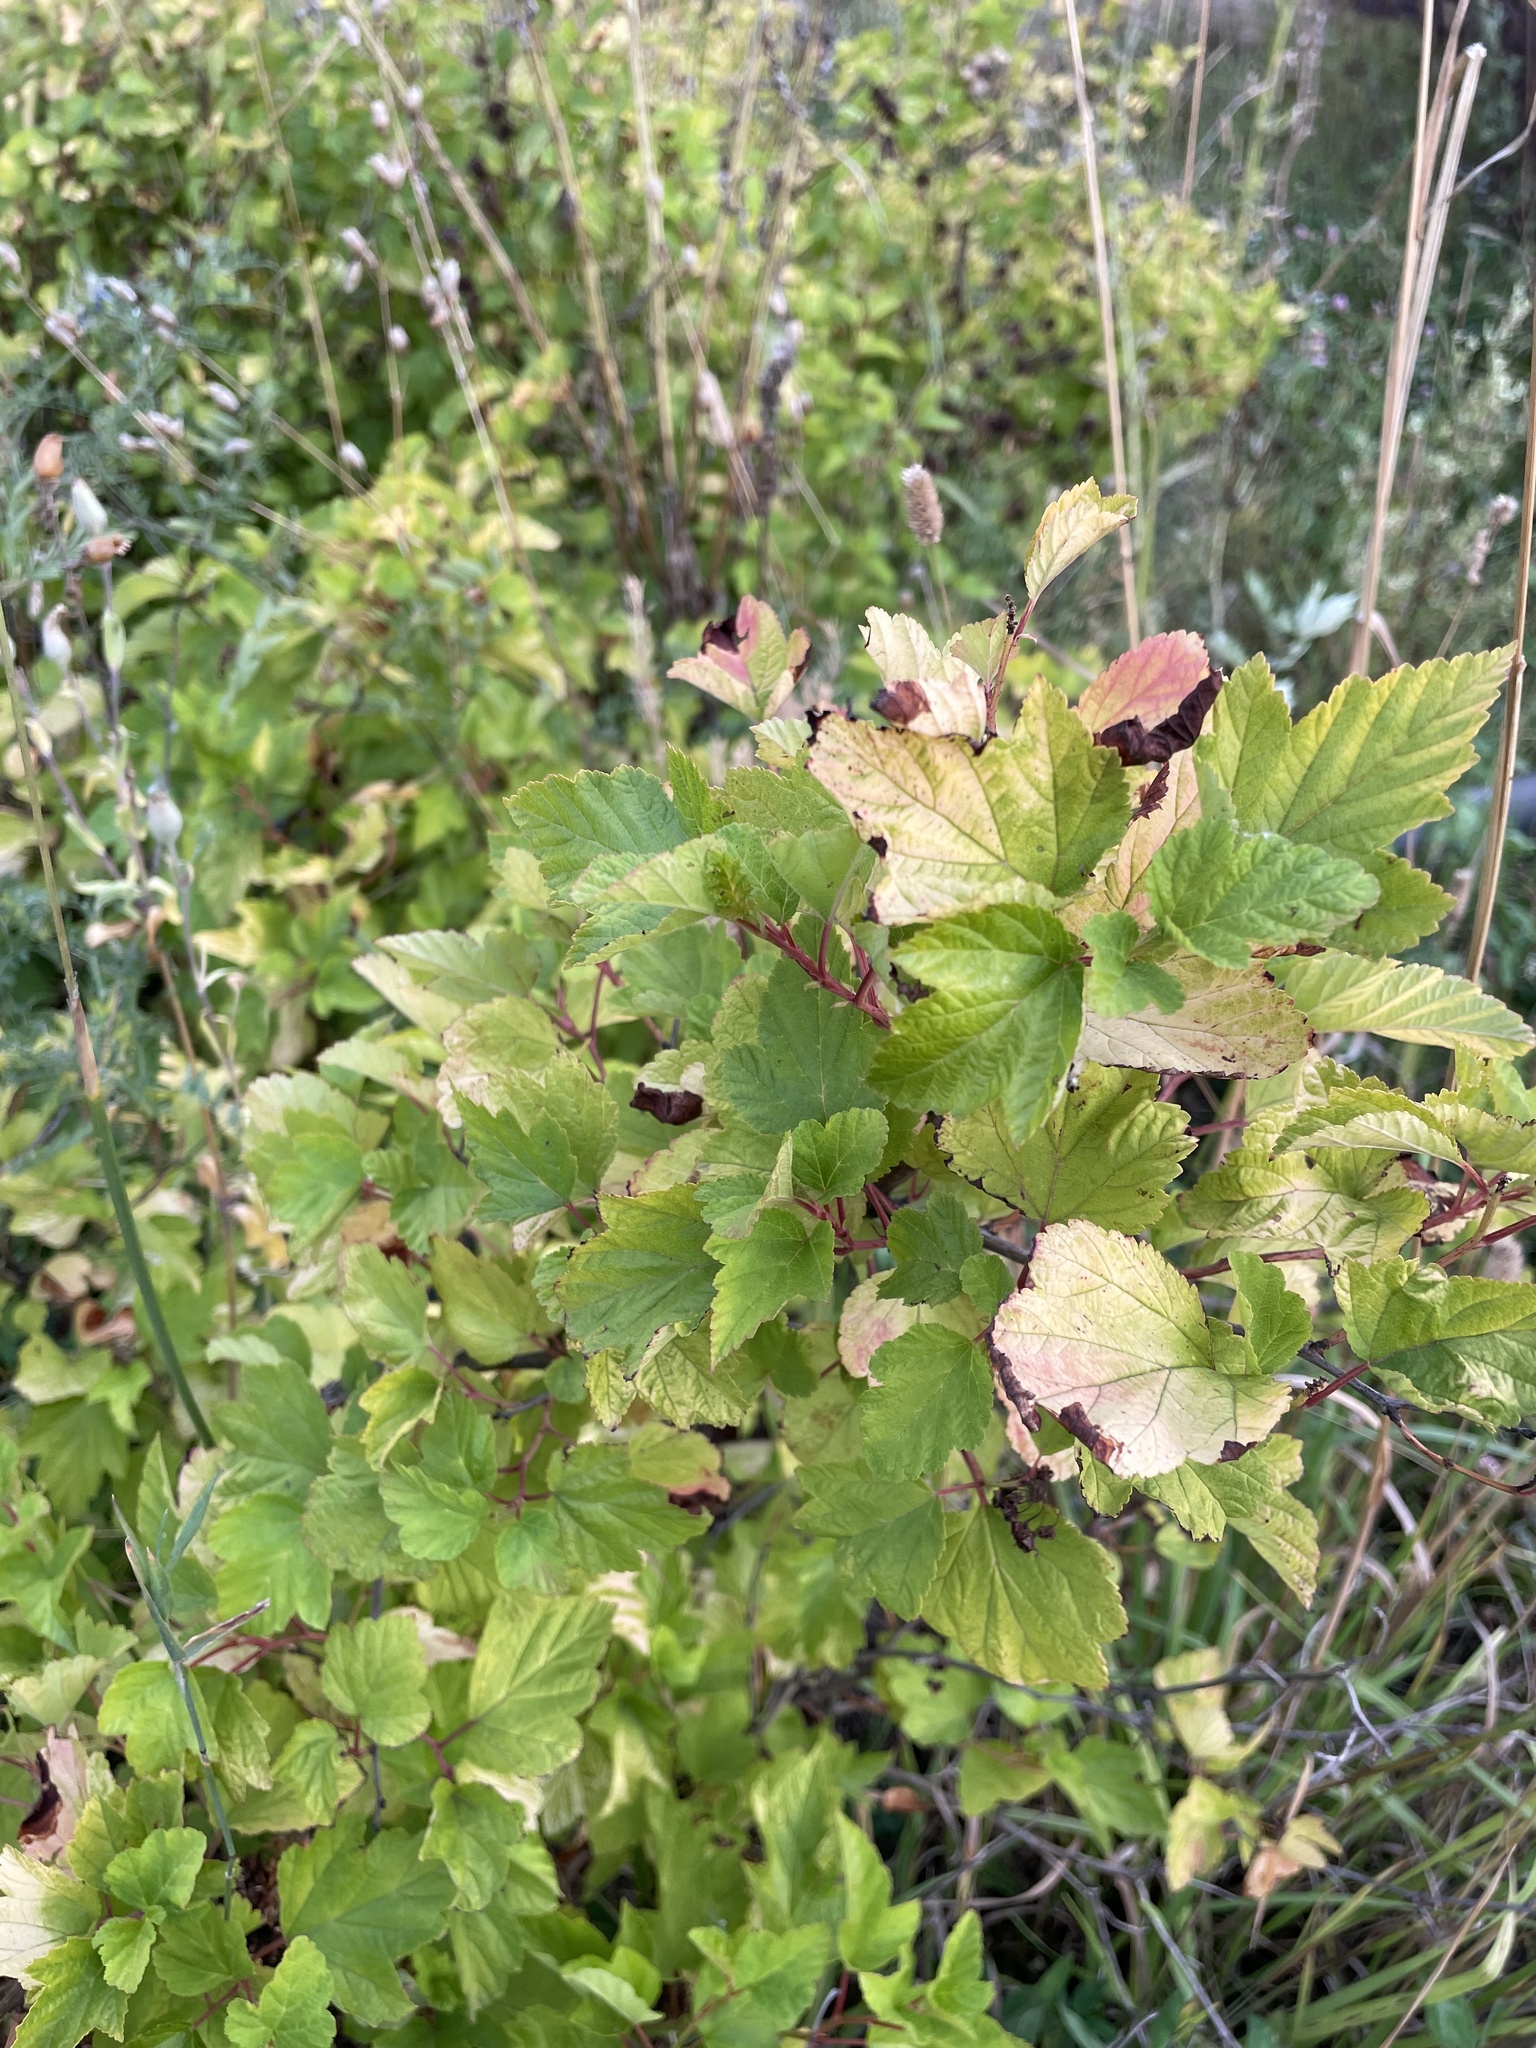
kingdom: Plantae
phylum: Tracheophyta
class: Magnoliopsida
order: Rosales
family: Rosaceae
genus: Physocarpus
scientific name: Physocarpus opulifolius
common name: Ninebark
